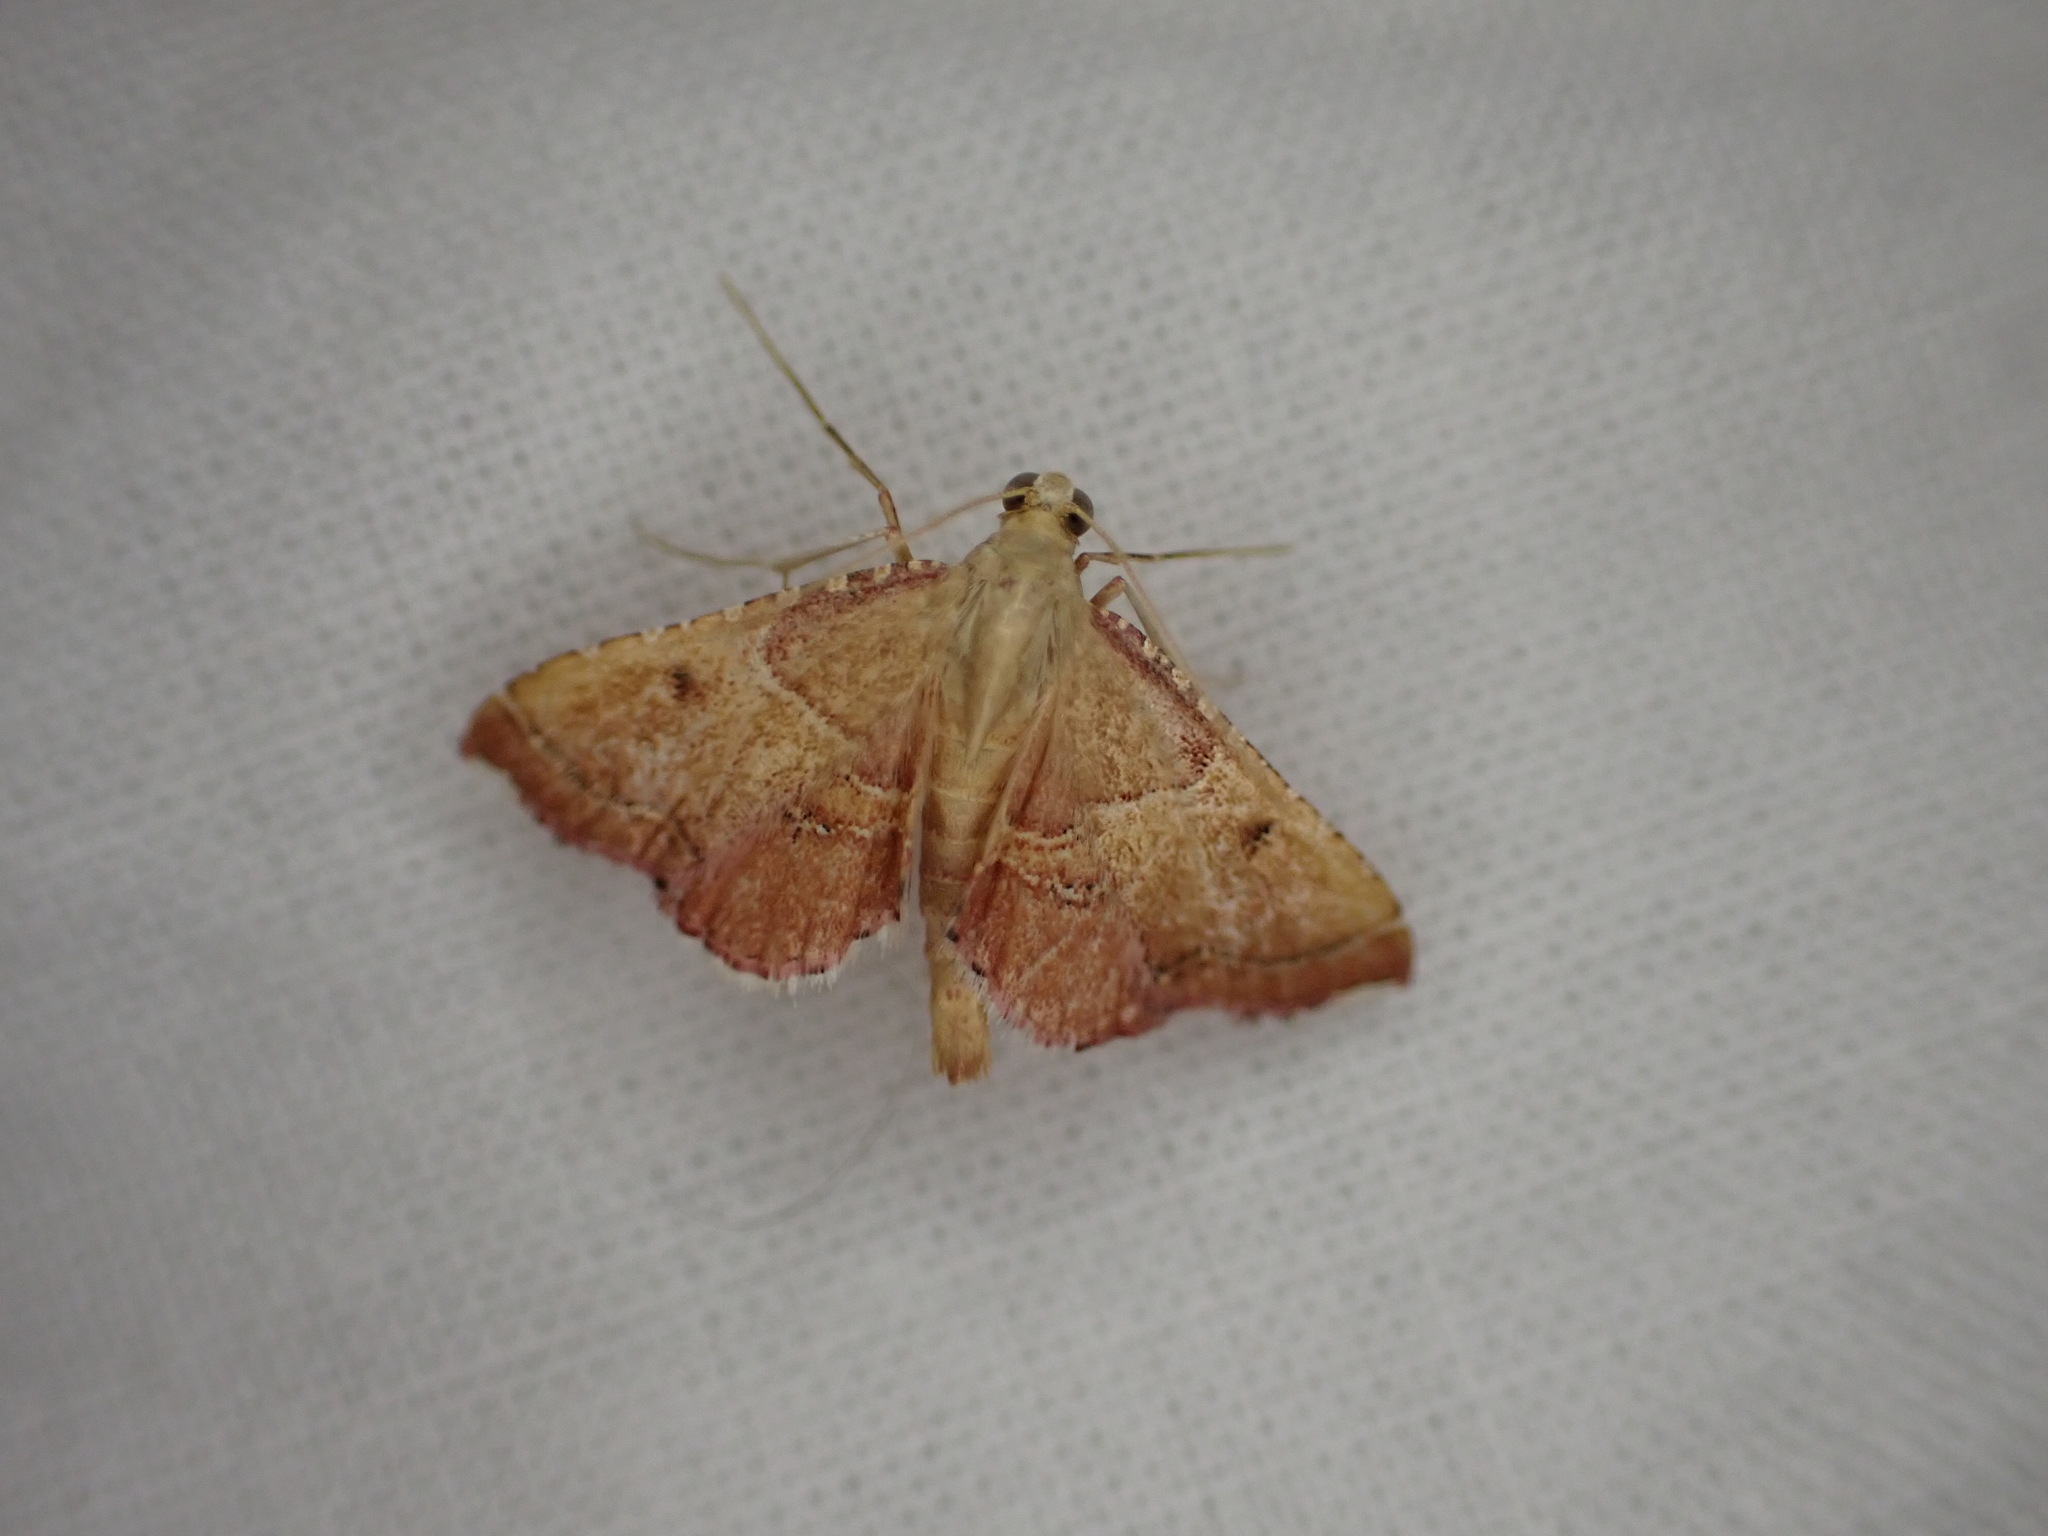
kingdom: Animalia
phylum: Arthropoda
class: Insecta
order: Lepidoptera
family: Pyralidae
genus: Endotricha
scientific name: Endotricha flammealis
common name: Rosy tabby
